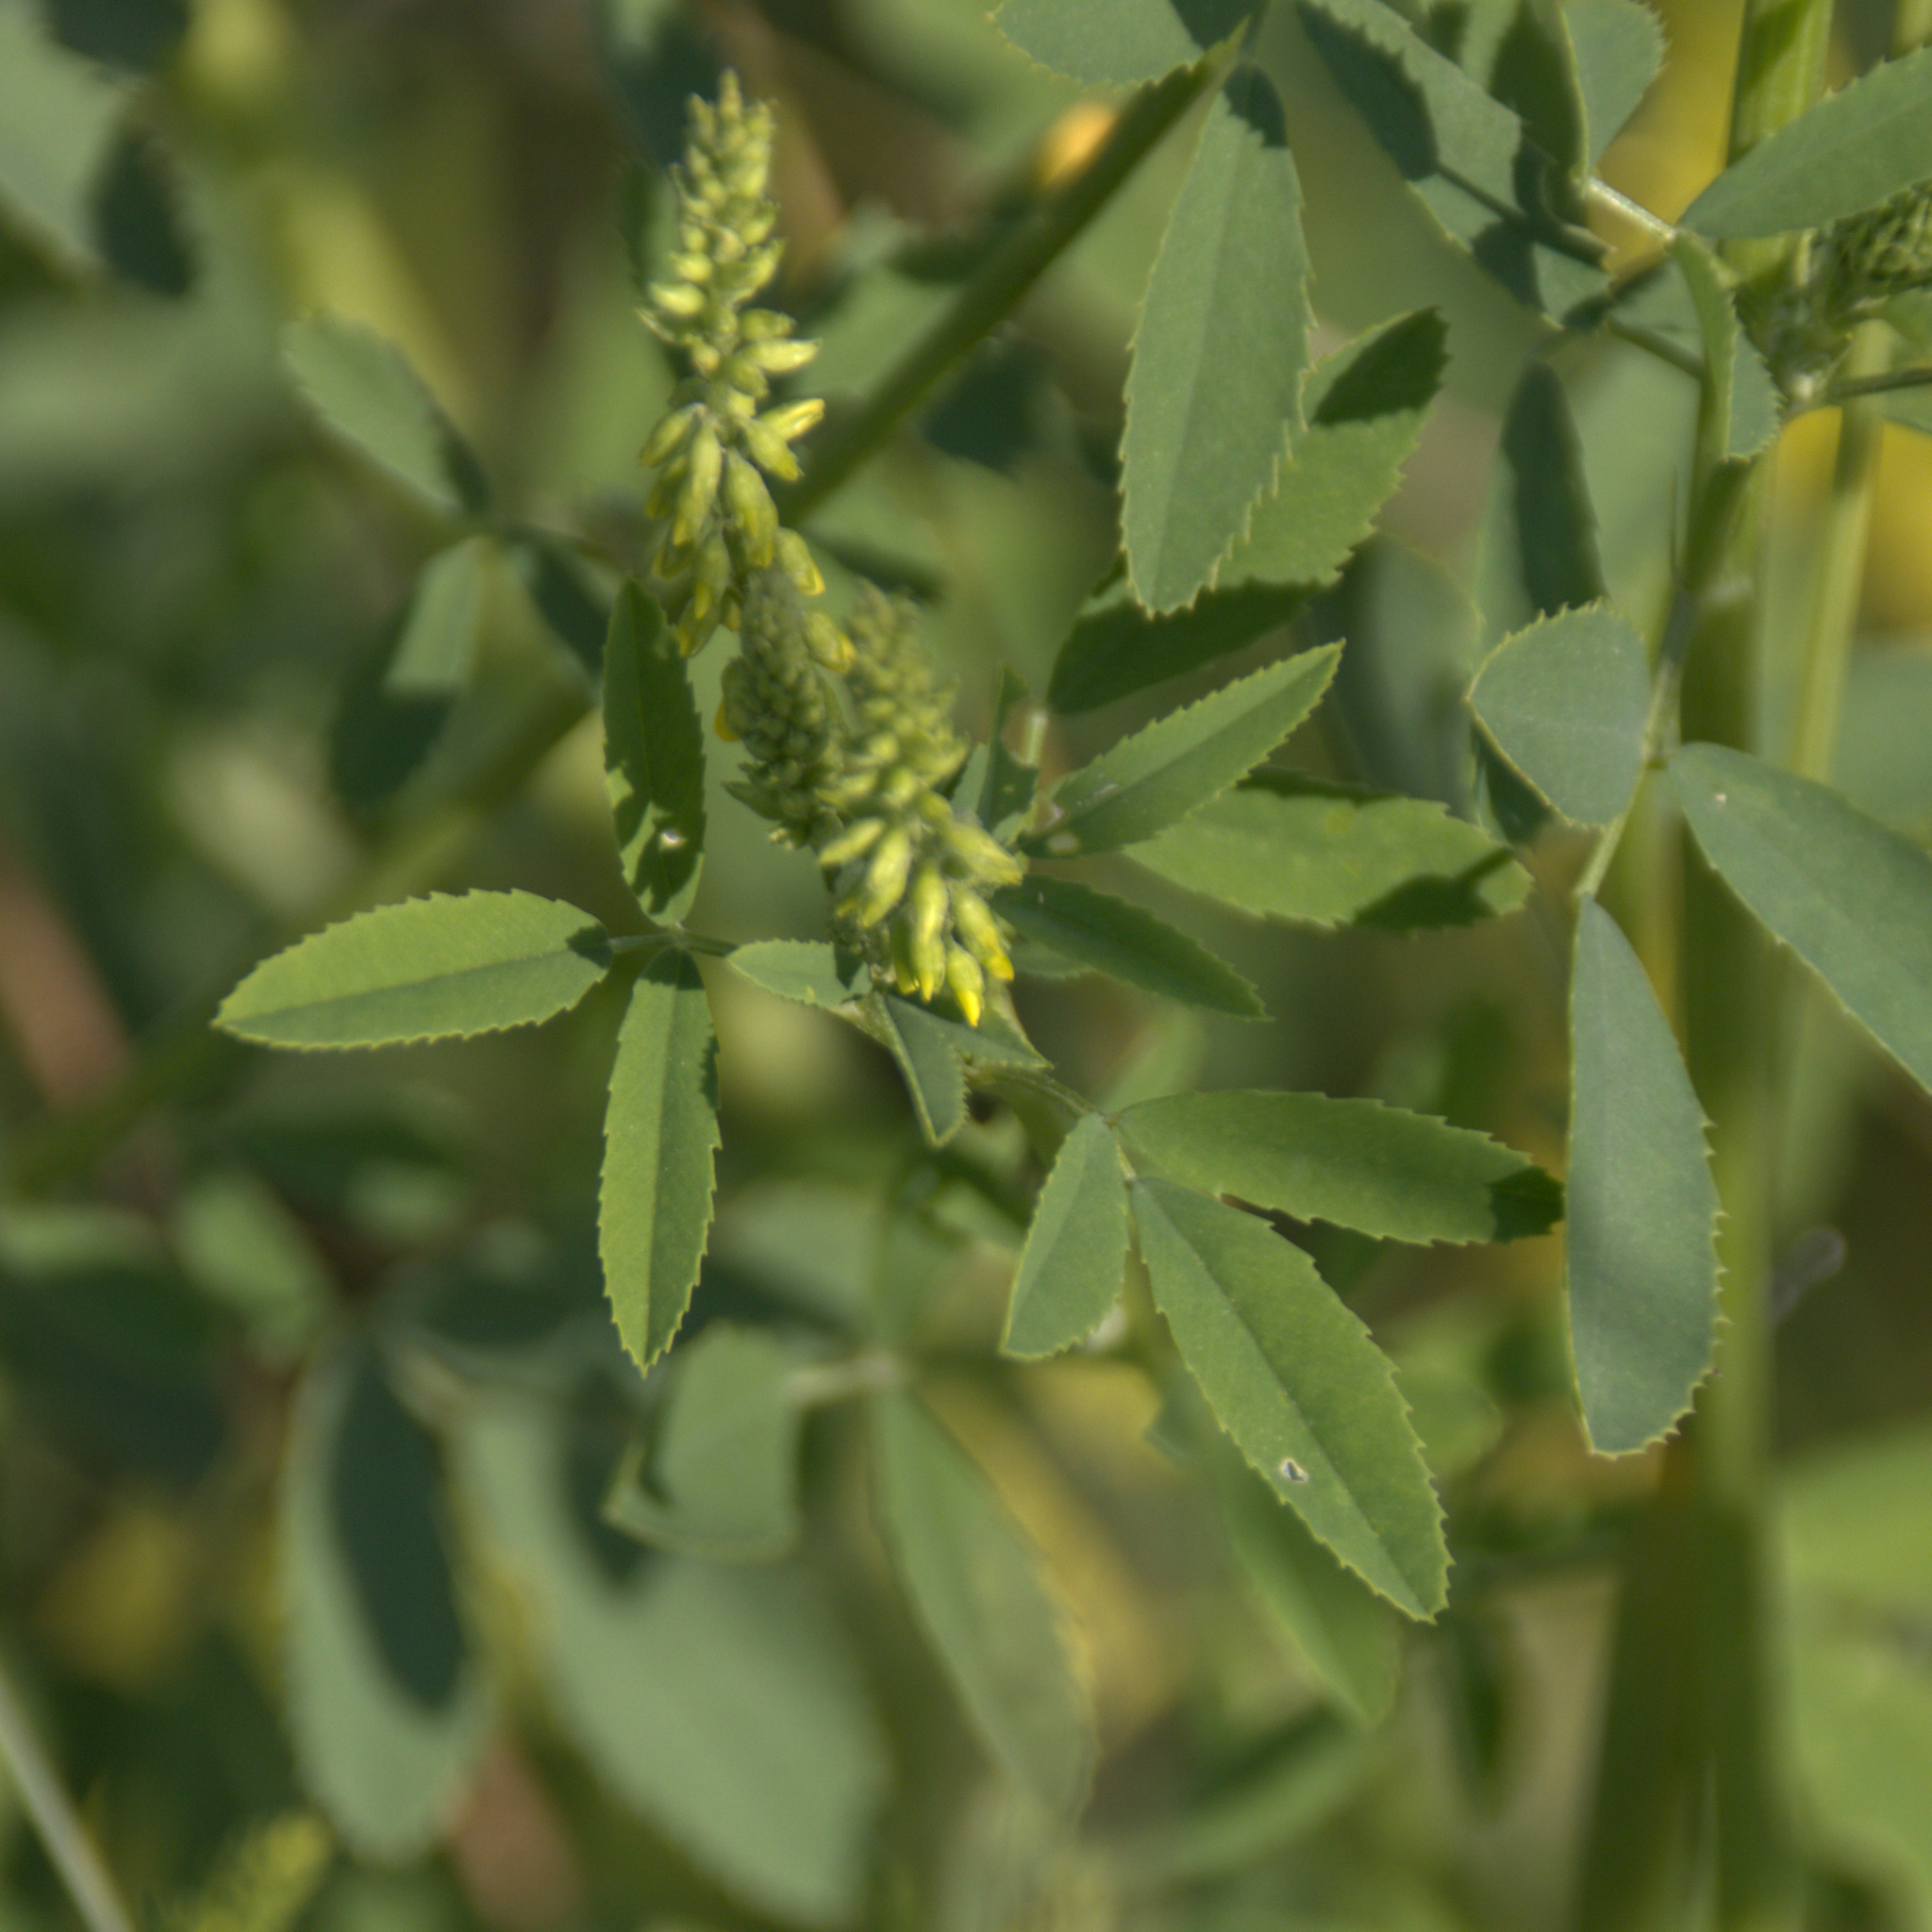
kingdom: Plantae
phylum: Tracheophyta
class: Magnoliopsida
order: Fabales
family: Fabaceae
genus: Melilotus
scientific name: Melilotus officinalis
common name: Sweetclover
